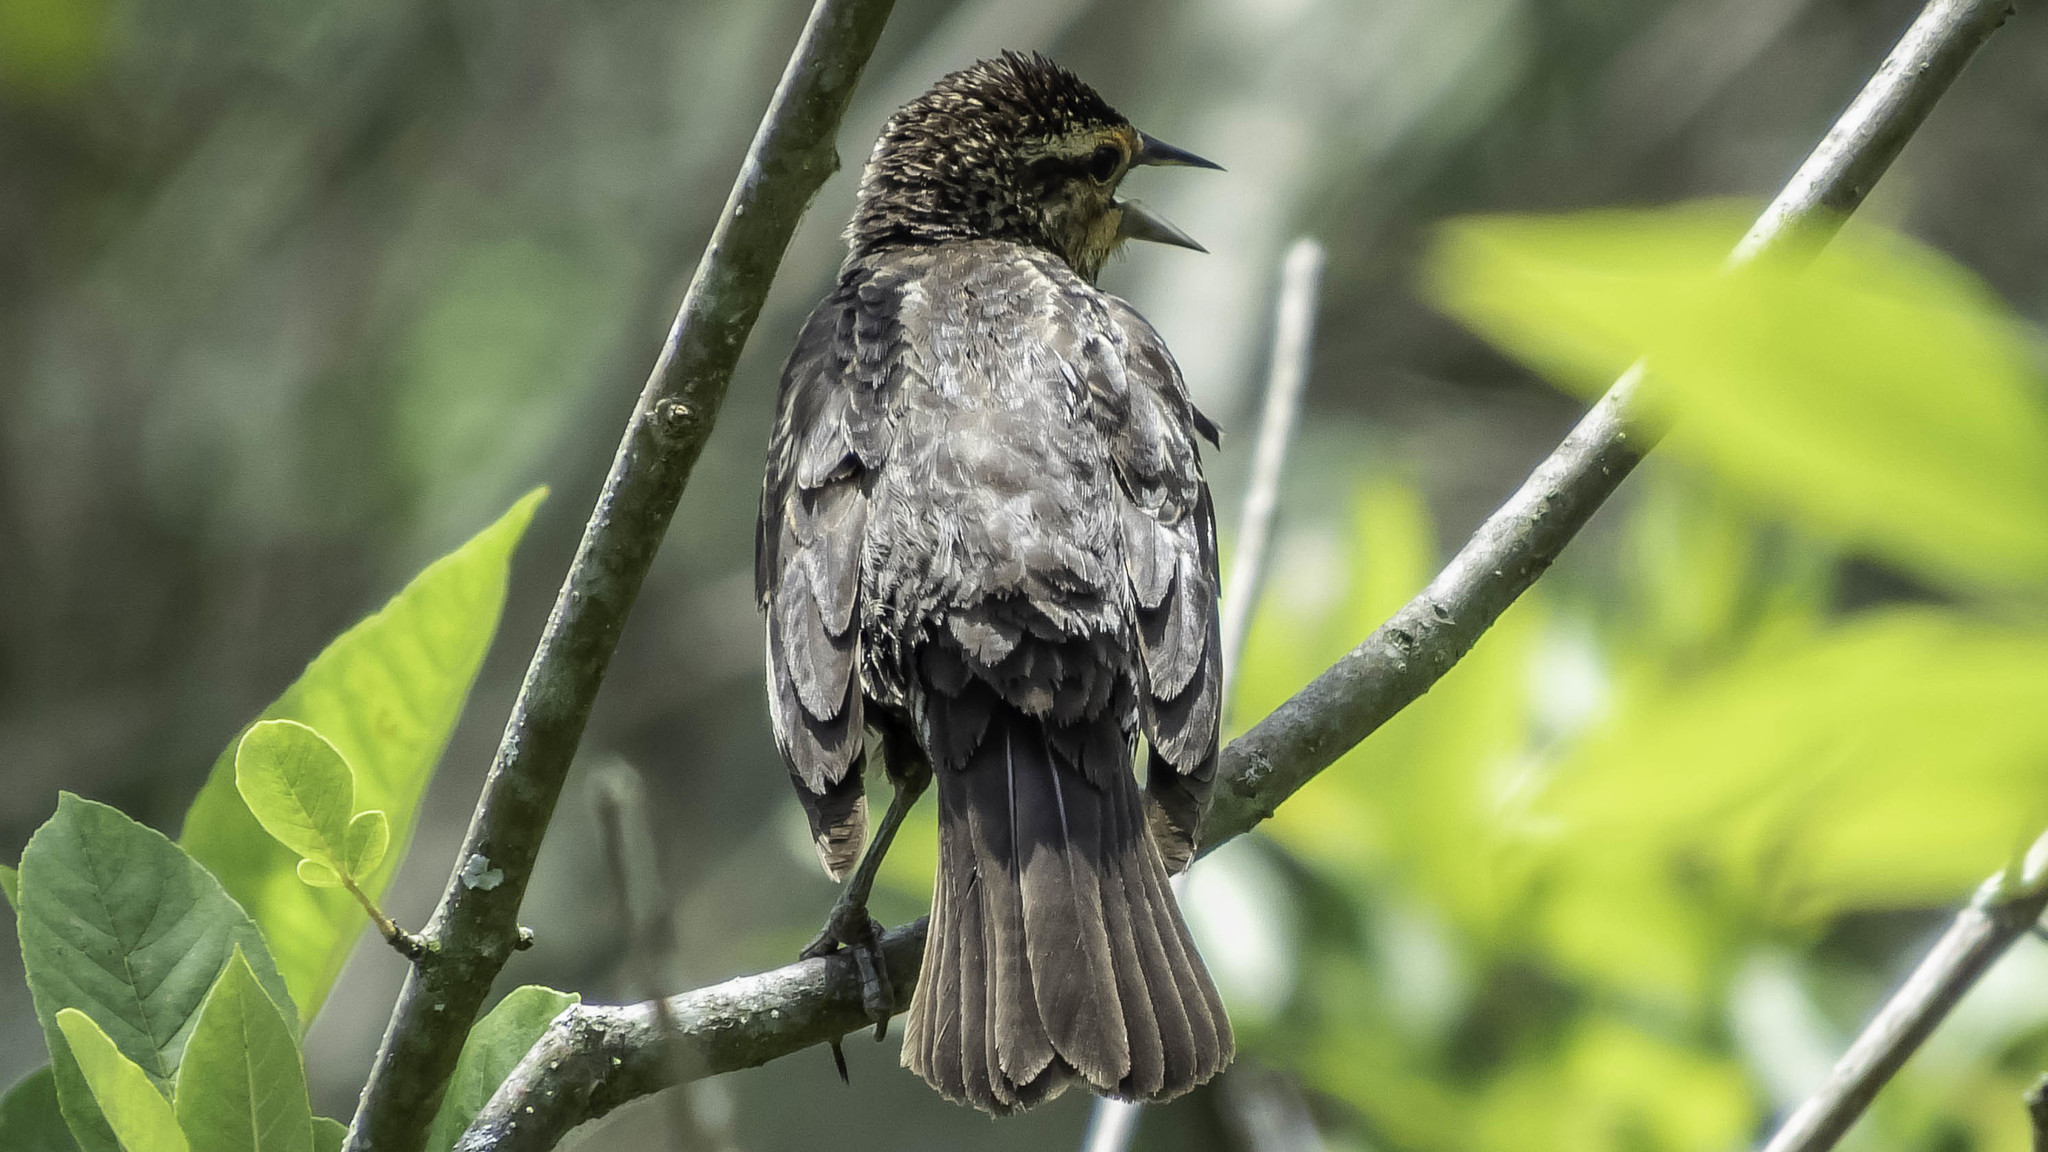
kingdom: Animalia
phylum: Chordata
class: Aves
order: Passeriformes
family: Icteridae
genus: Agelaius
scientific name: Agelaius phoeniceus
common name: Red-winged blackbird
